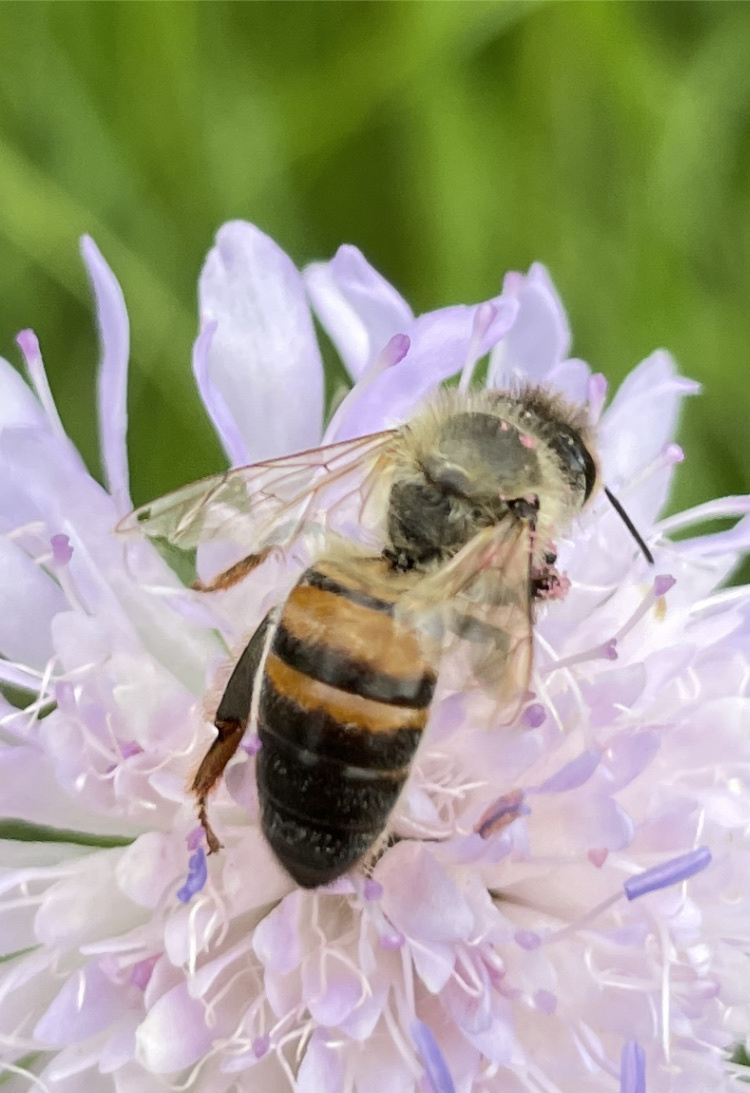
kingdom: Animalia
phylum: Arthropoda
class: Insecta
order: Hymenoptera
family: Apidae
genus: Apis
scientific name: Apis mellifera
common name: Honey bee
